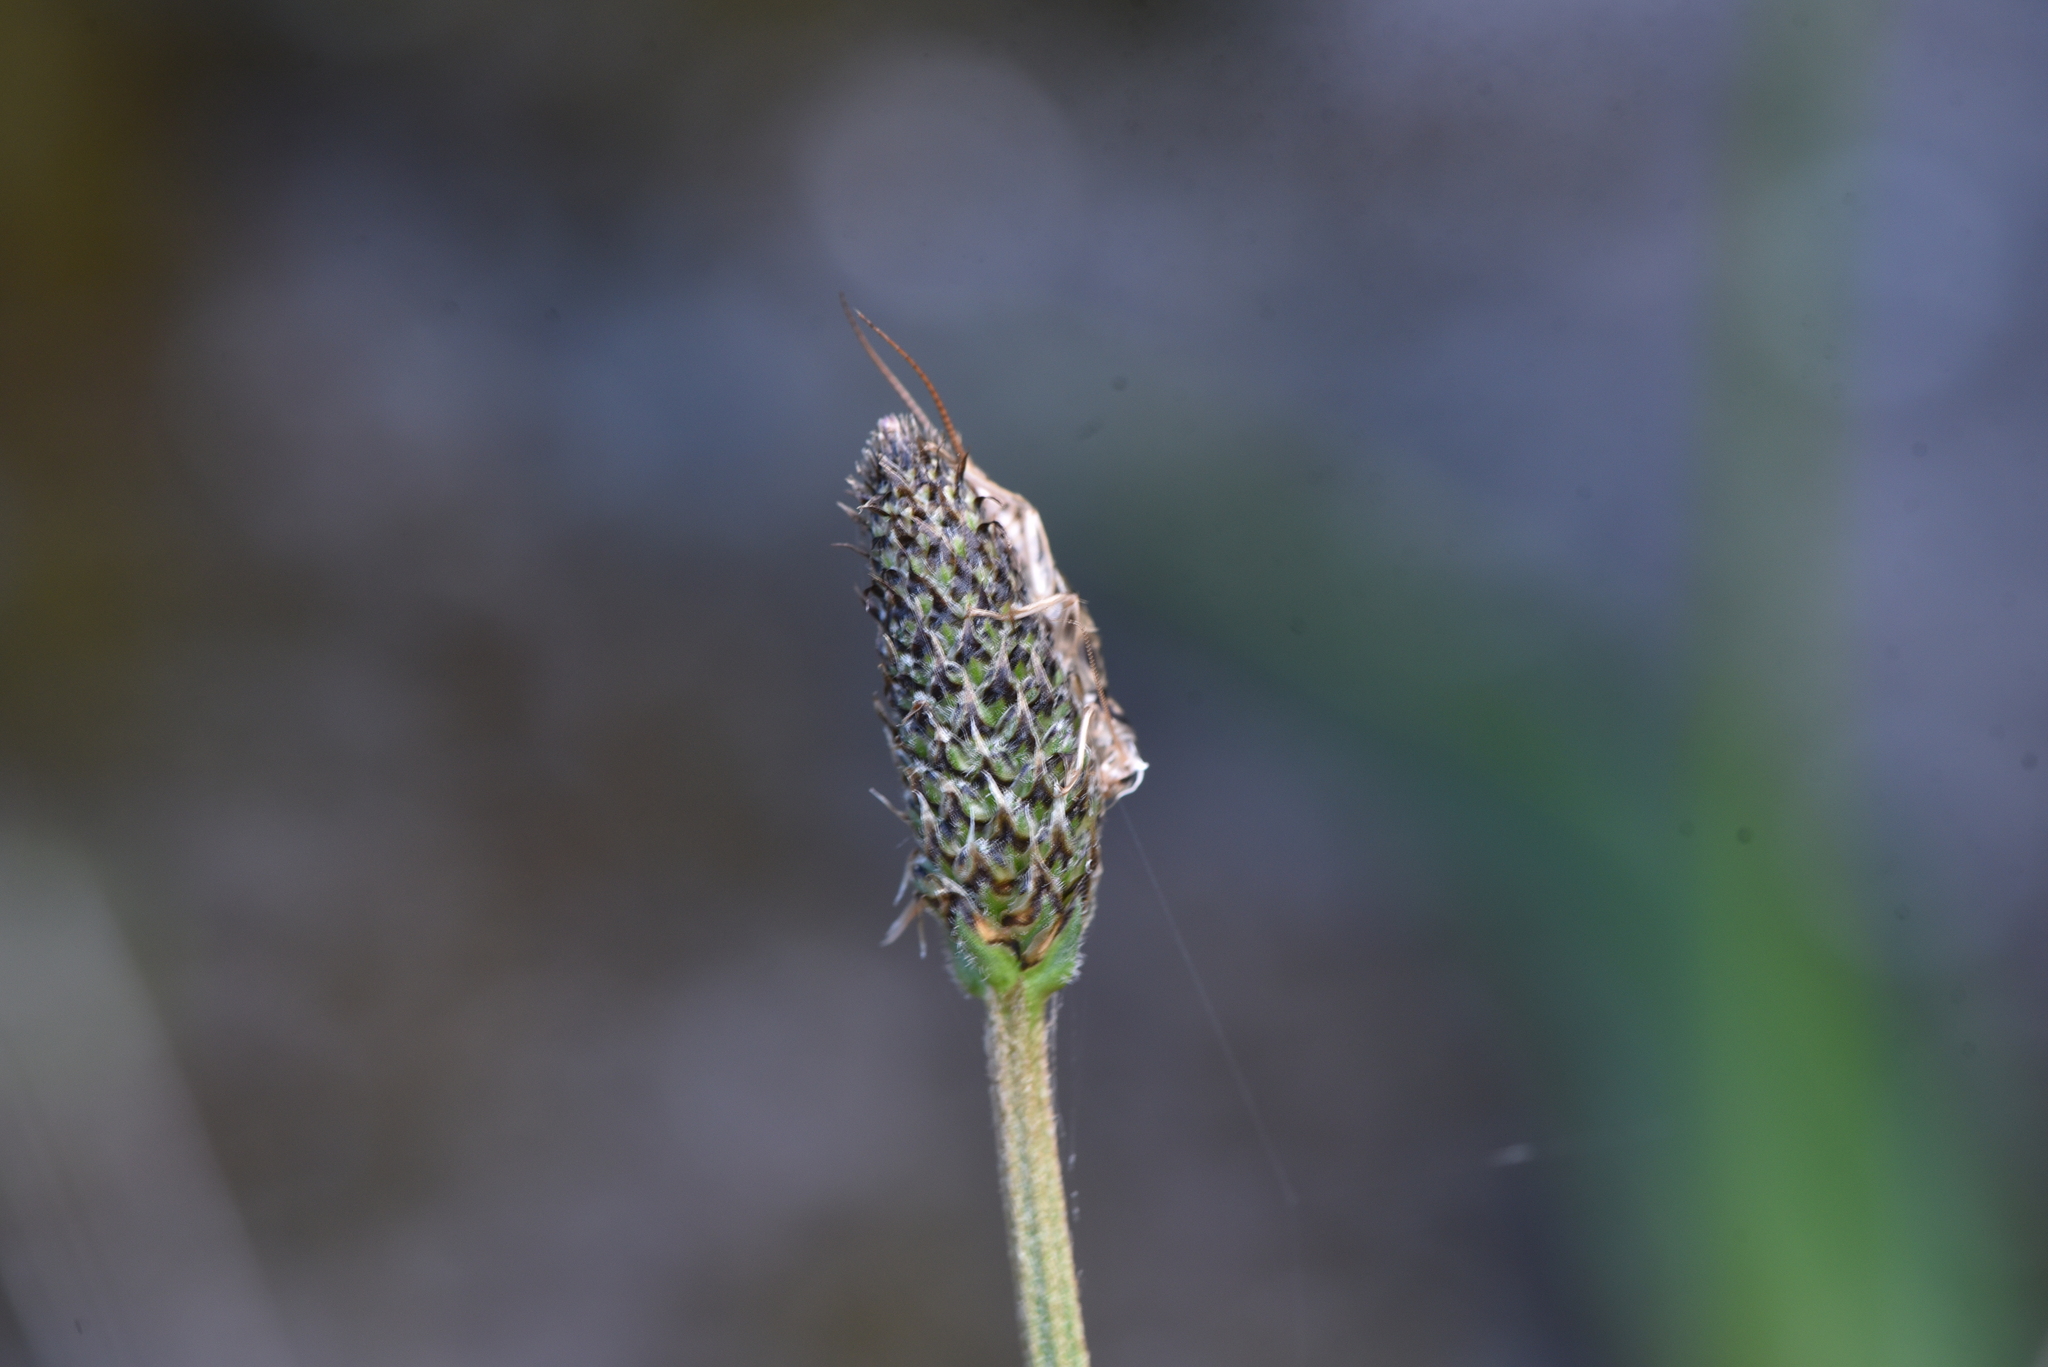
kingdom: Plantae
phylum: Tracheophyta
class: Magnoliopsida
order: Lamiales
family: Plantaginaceae
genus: Plantago
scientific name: Plantago lanceolata
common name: Ribwort plantain
